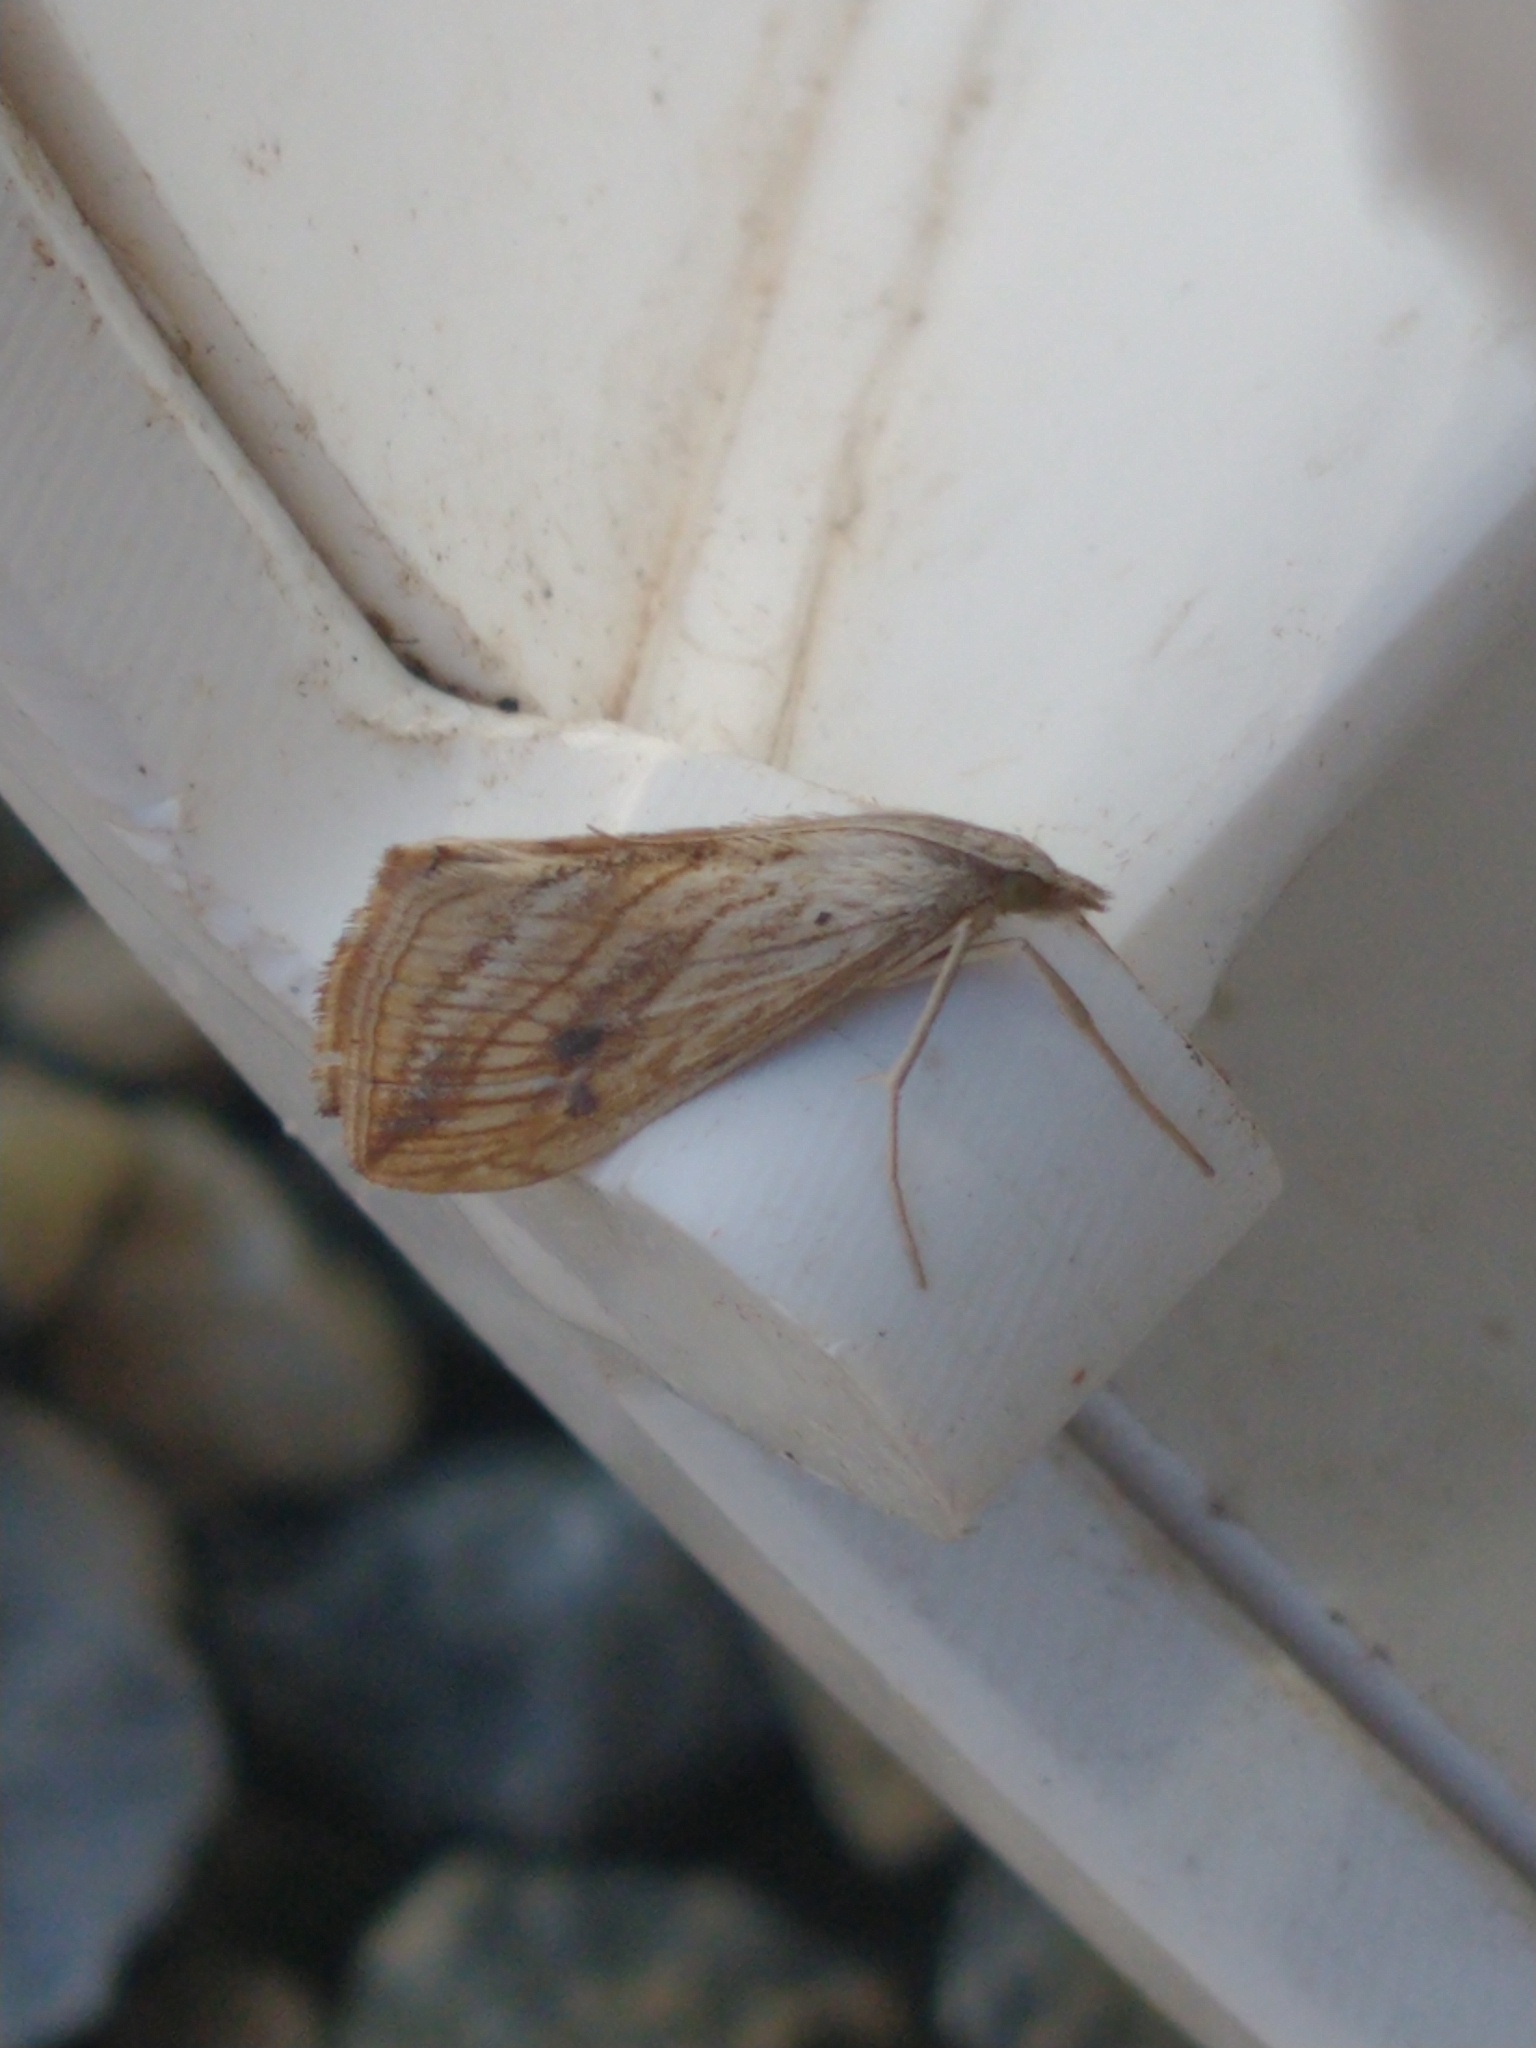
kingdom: Animalia
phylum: Arthropoda
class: Insecta
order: Lepidoptera
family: Crambidae
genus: Evergestis
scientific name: Evergestis forficalis
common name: Garden pebble
